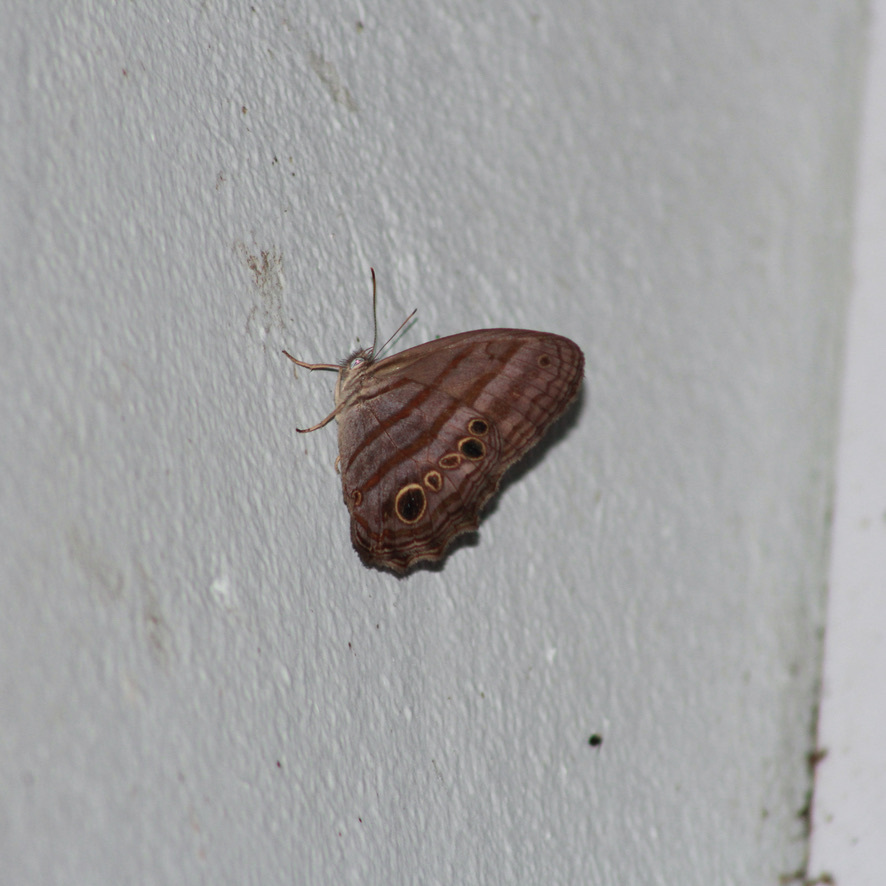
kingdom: Animalia
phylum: Arthropoda
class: Insecta
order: Lepidoptera
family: Nymphalidae
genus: Magneuptychia
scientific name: Magneuptychia libye
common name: Blue-gray satyr
